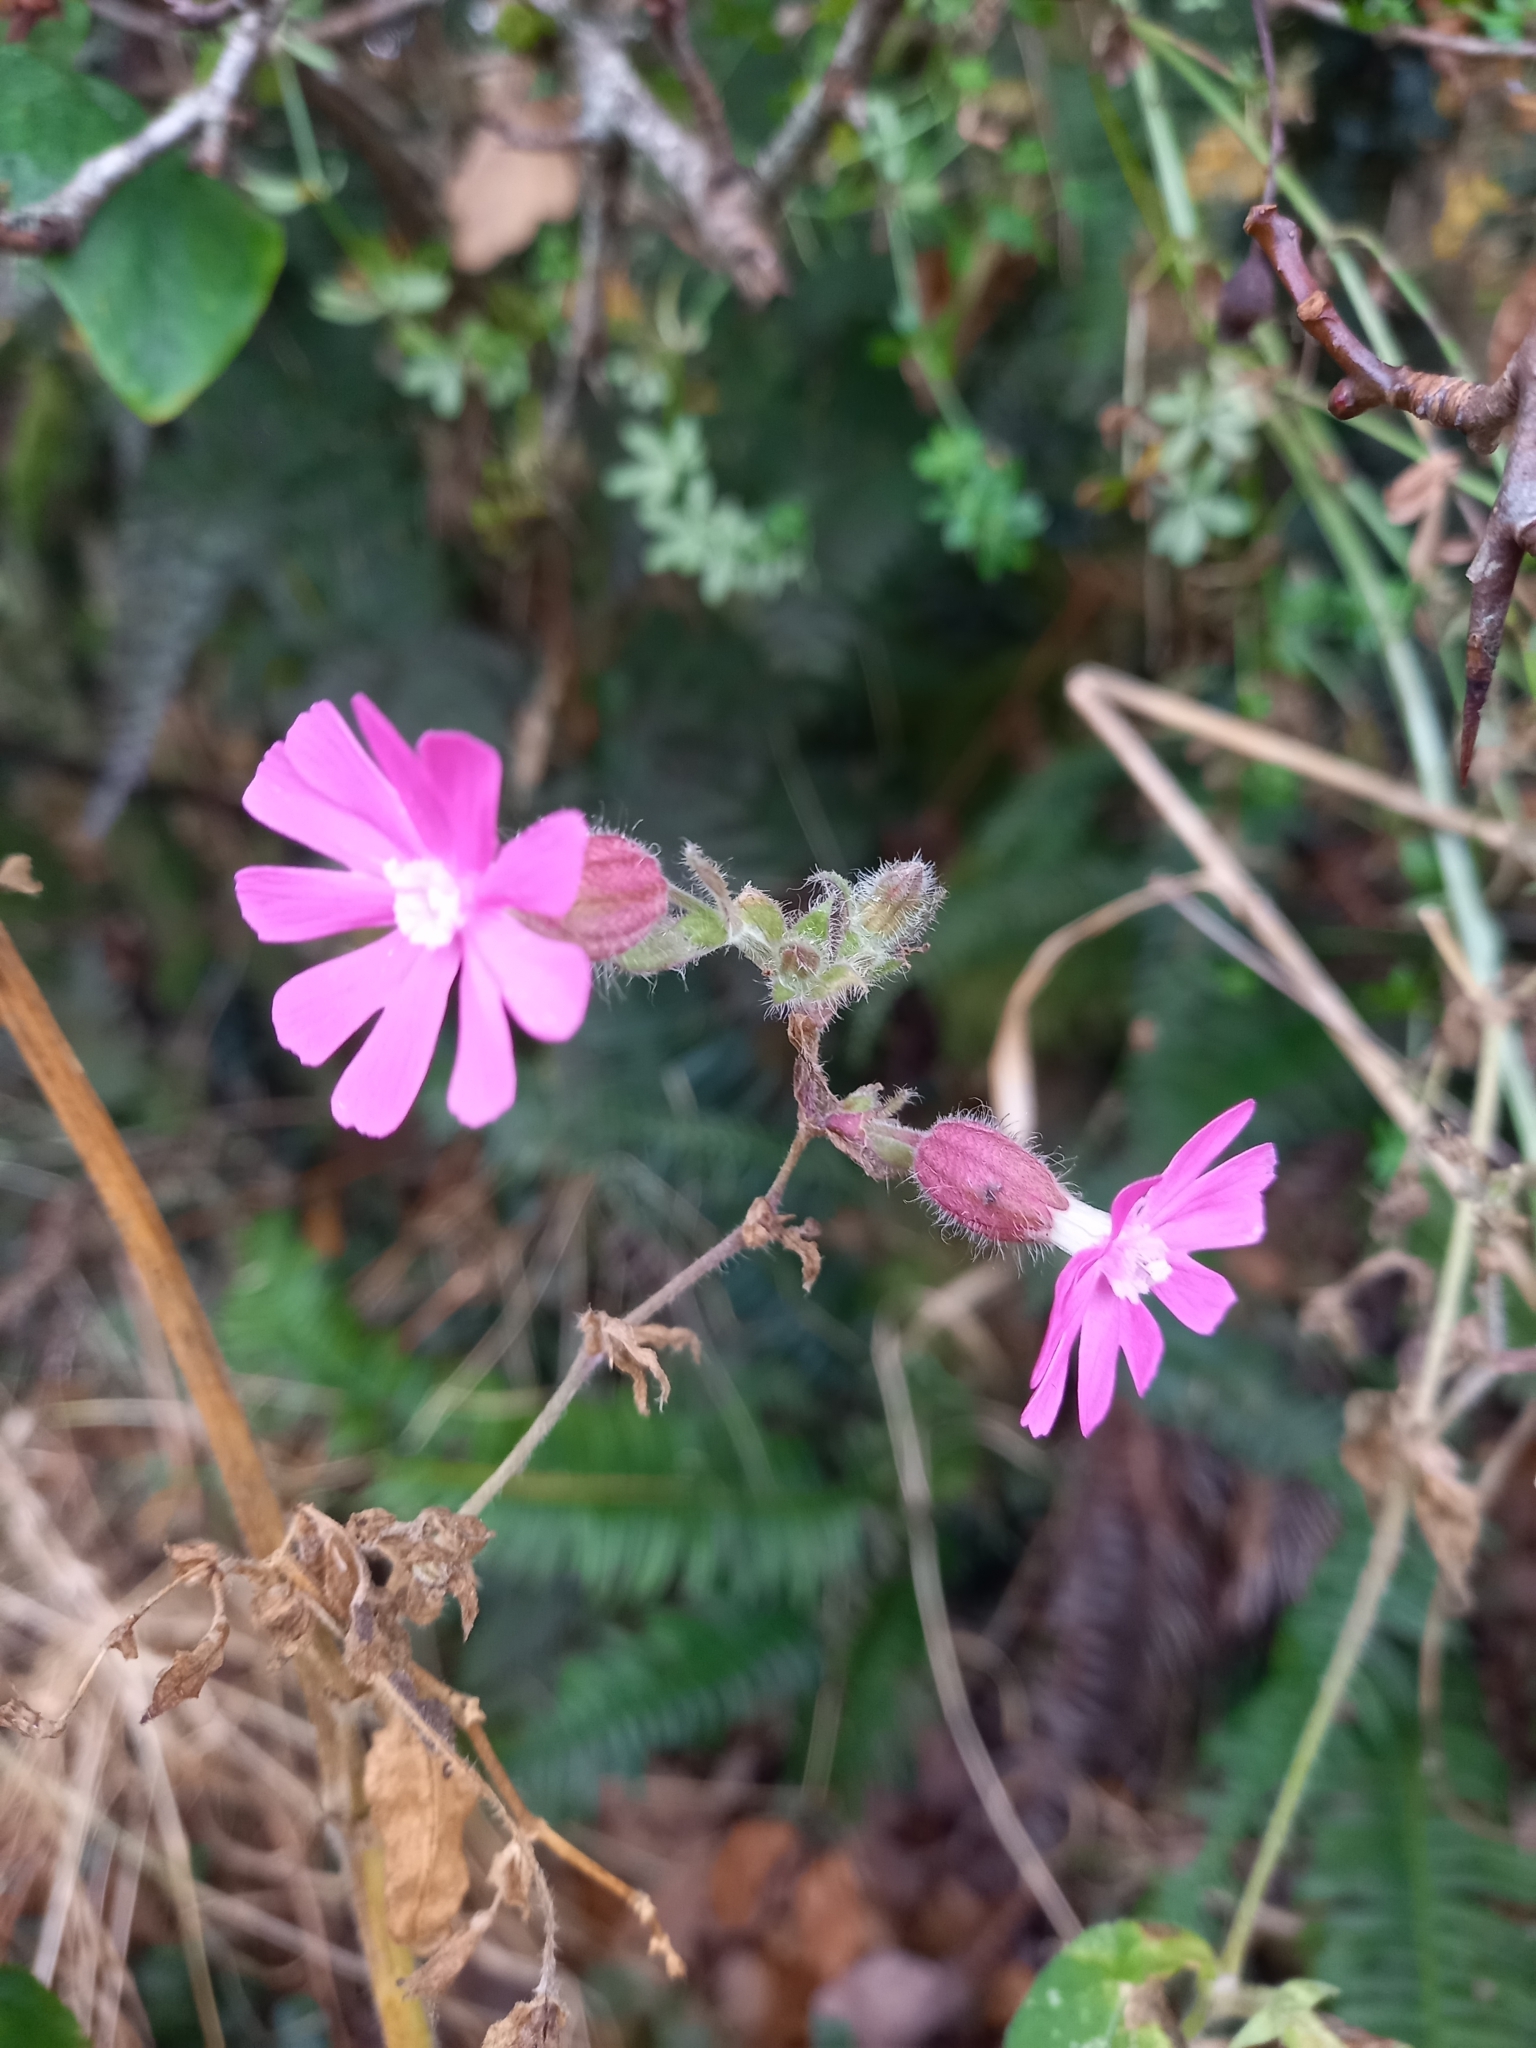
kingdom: Plantae
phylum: Tracheophyta
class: Magnoliopsida
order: Caryophyllales
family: Caryophyllaceae
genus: Silene
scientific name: Silene dioica
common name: Red campion
